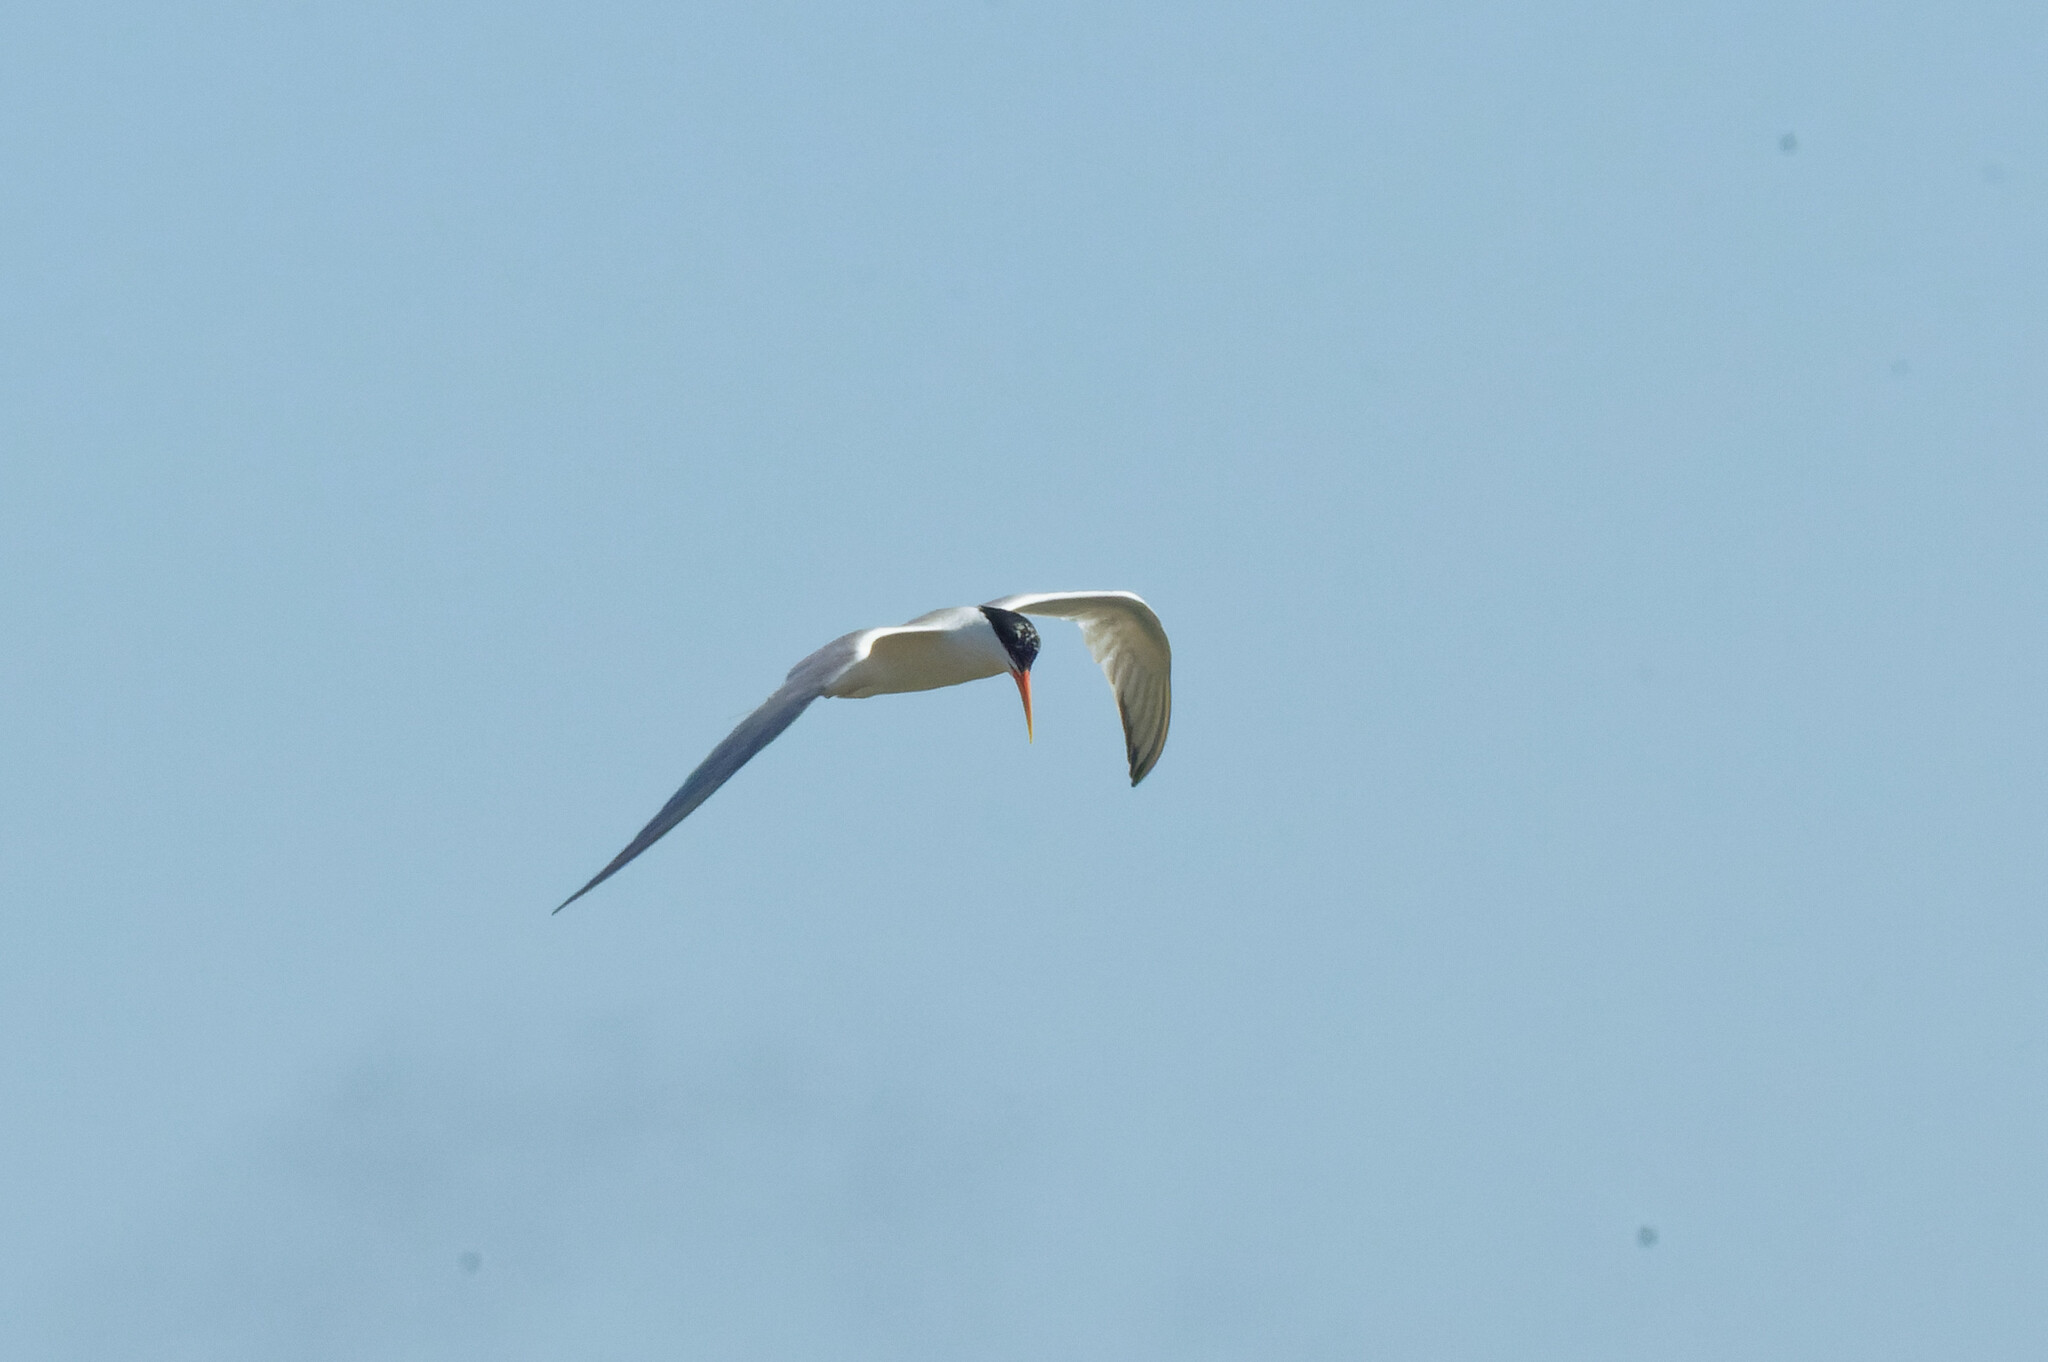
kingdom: Animalia
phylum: Chordata
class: Aves
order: Charadriiformes
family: Laridae
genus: Thalasseus
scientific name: Thalasseus elegans
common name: Elegant tern
